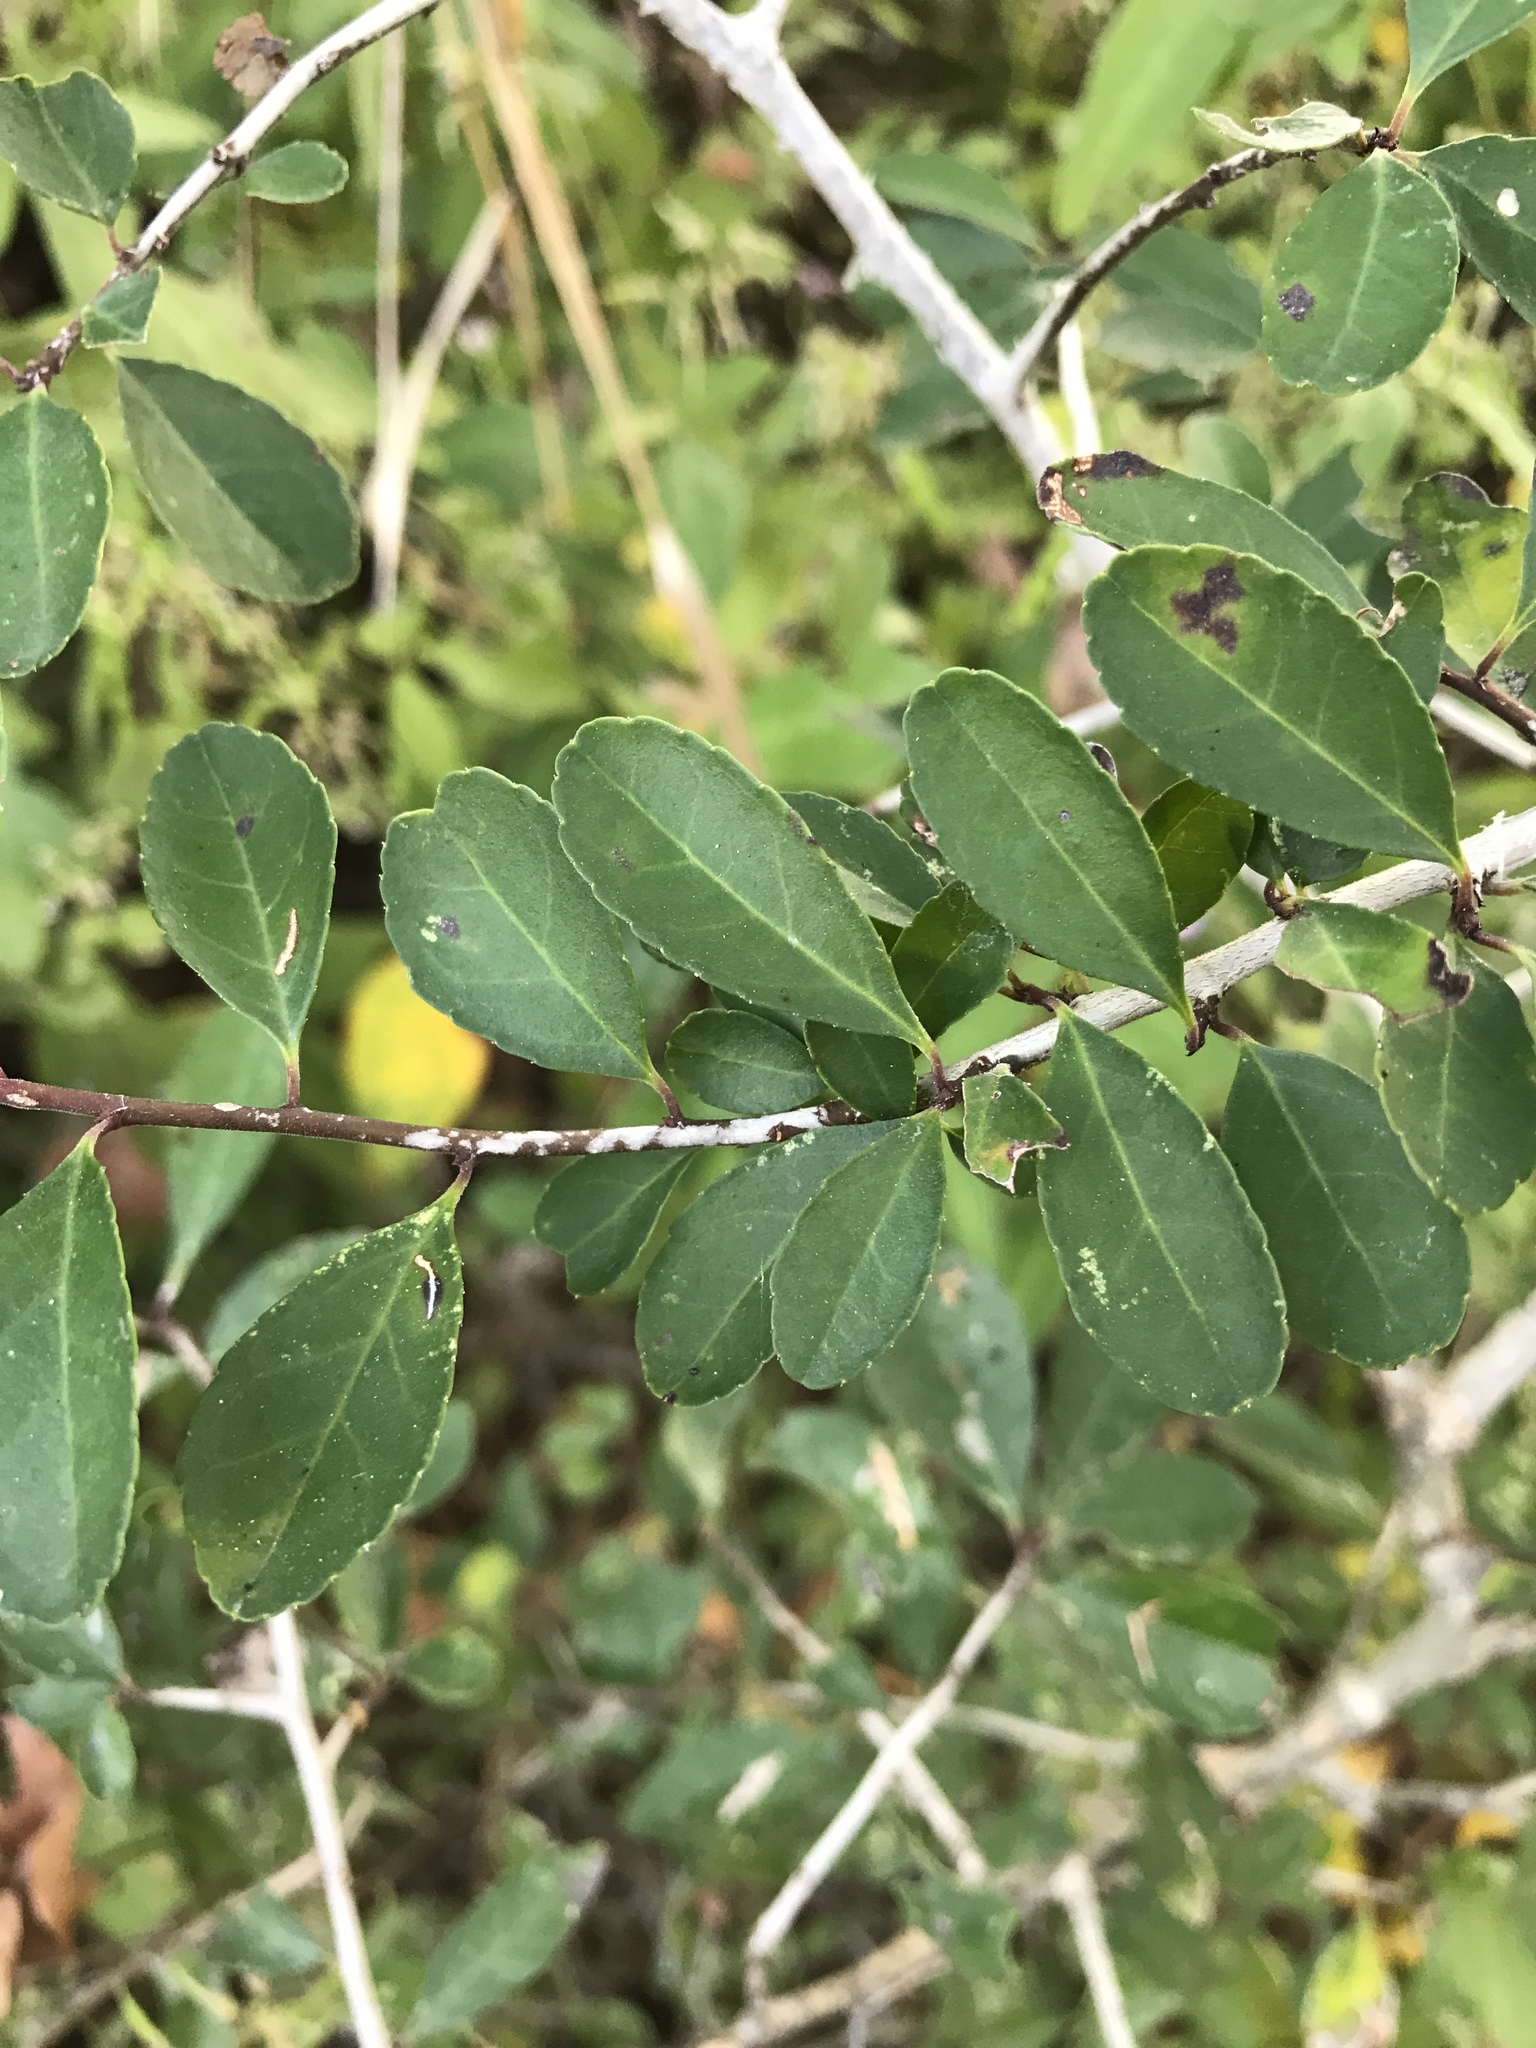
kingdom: Plantae
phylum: Tracheophyta
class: Magnoliopsida
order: Aquifoliales
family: Aquifoliaceae
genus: Ilex
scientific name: Ilex vomitoria
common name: Yaupon holly
